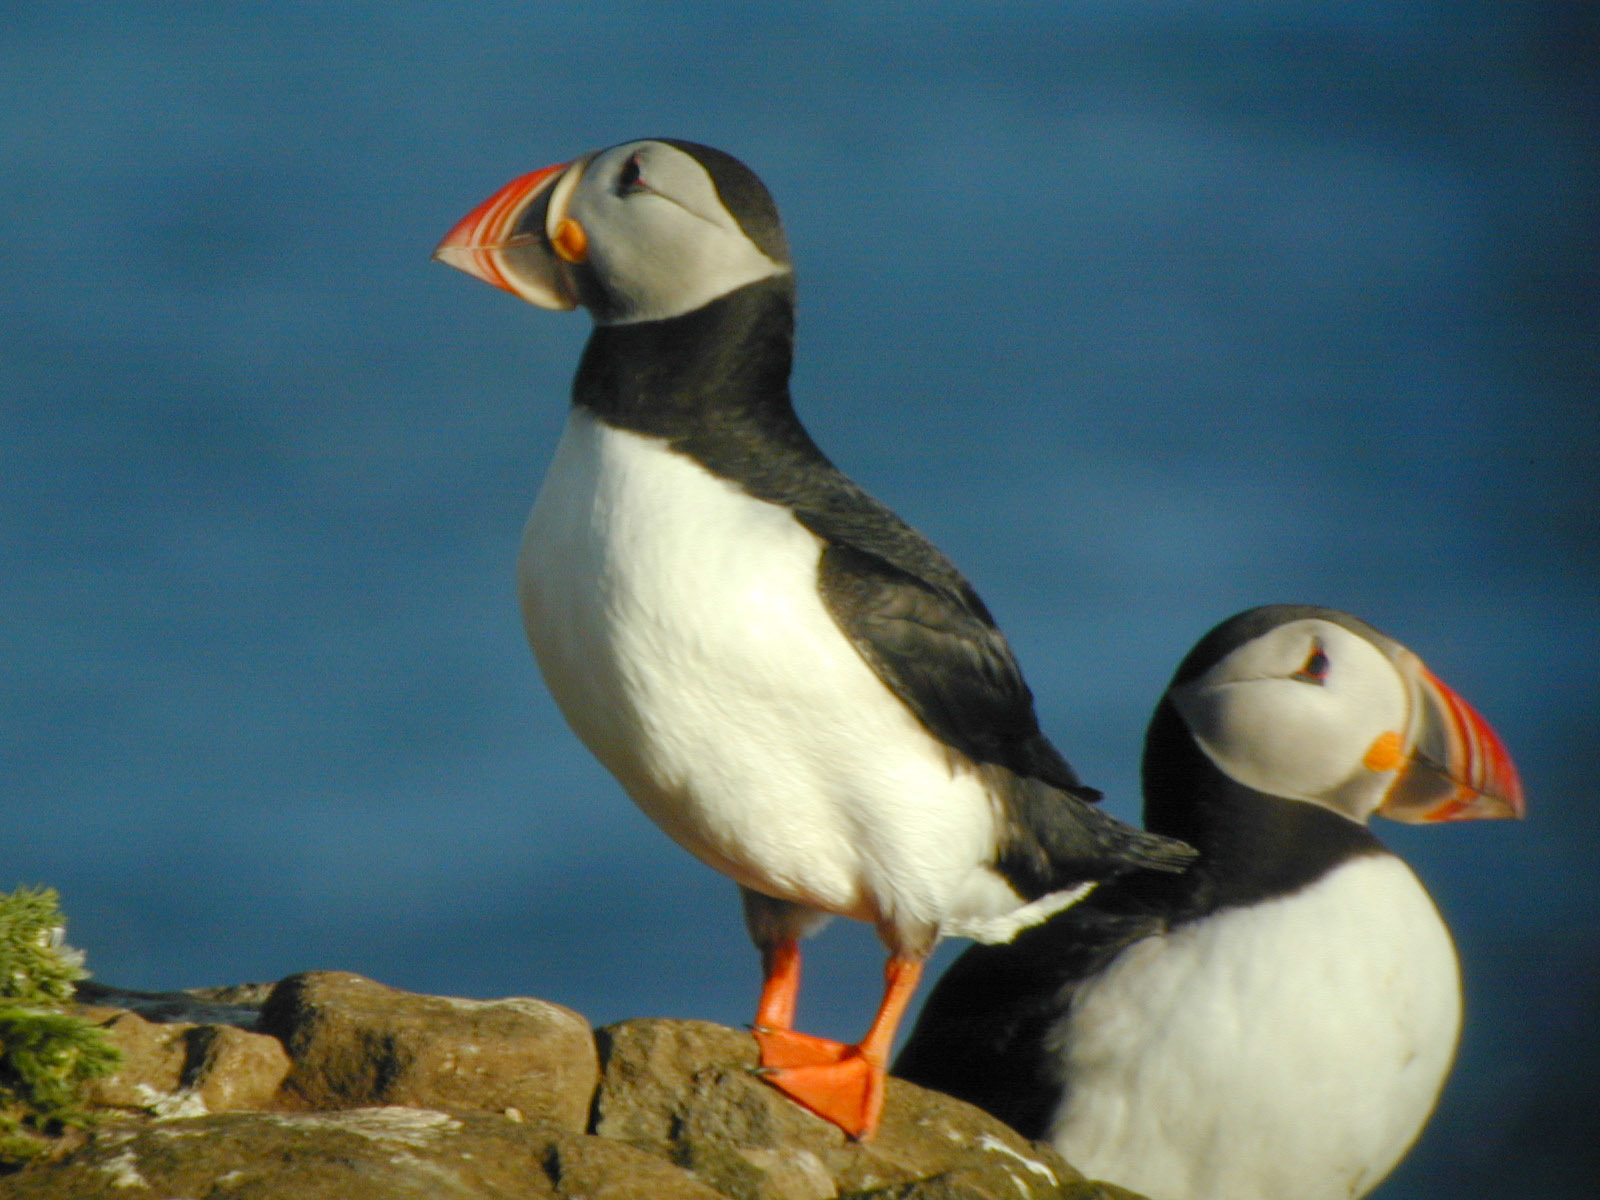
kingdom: Animalia
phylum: Chordata
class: Aves
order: Charadriiformes
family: Alcidae
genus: Fratercula
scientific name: Fratercula arctica
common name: Atlantic puffin
